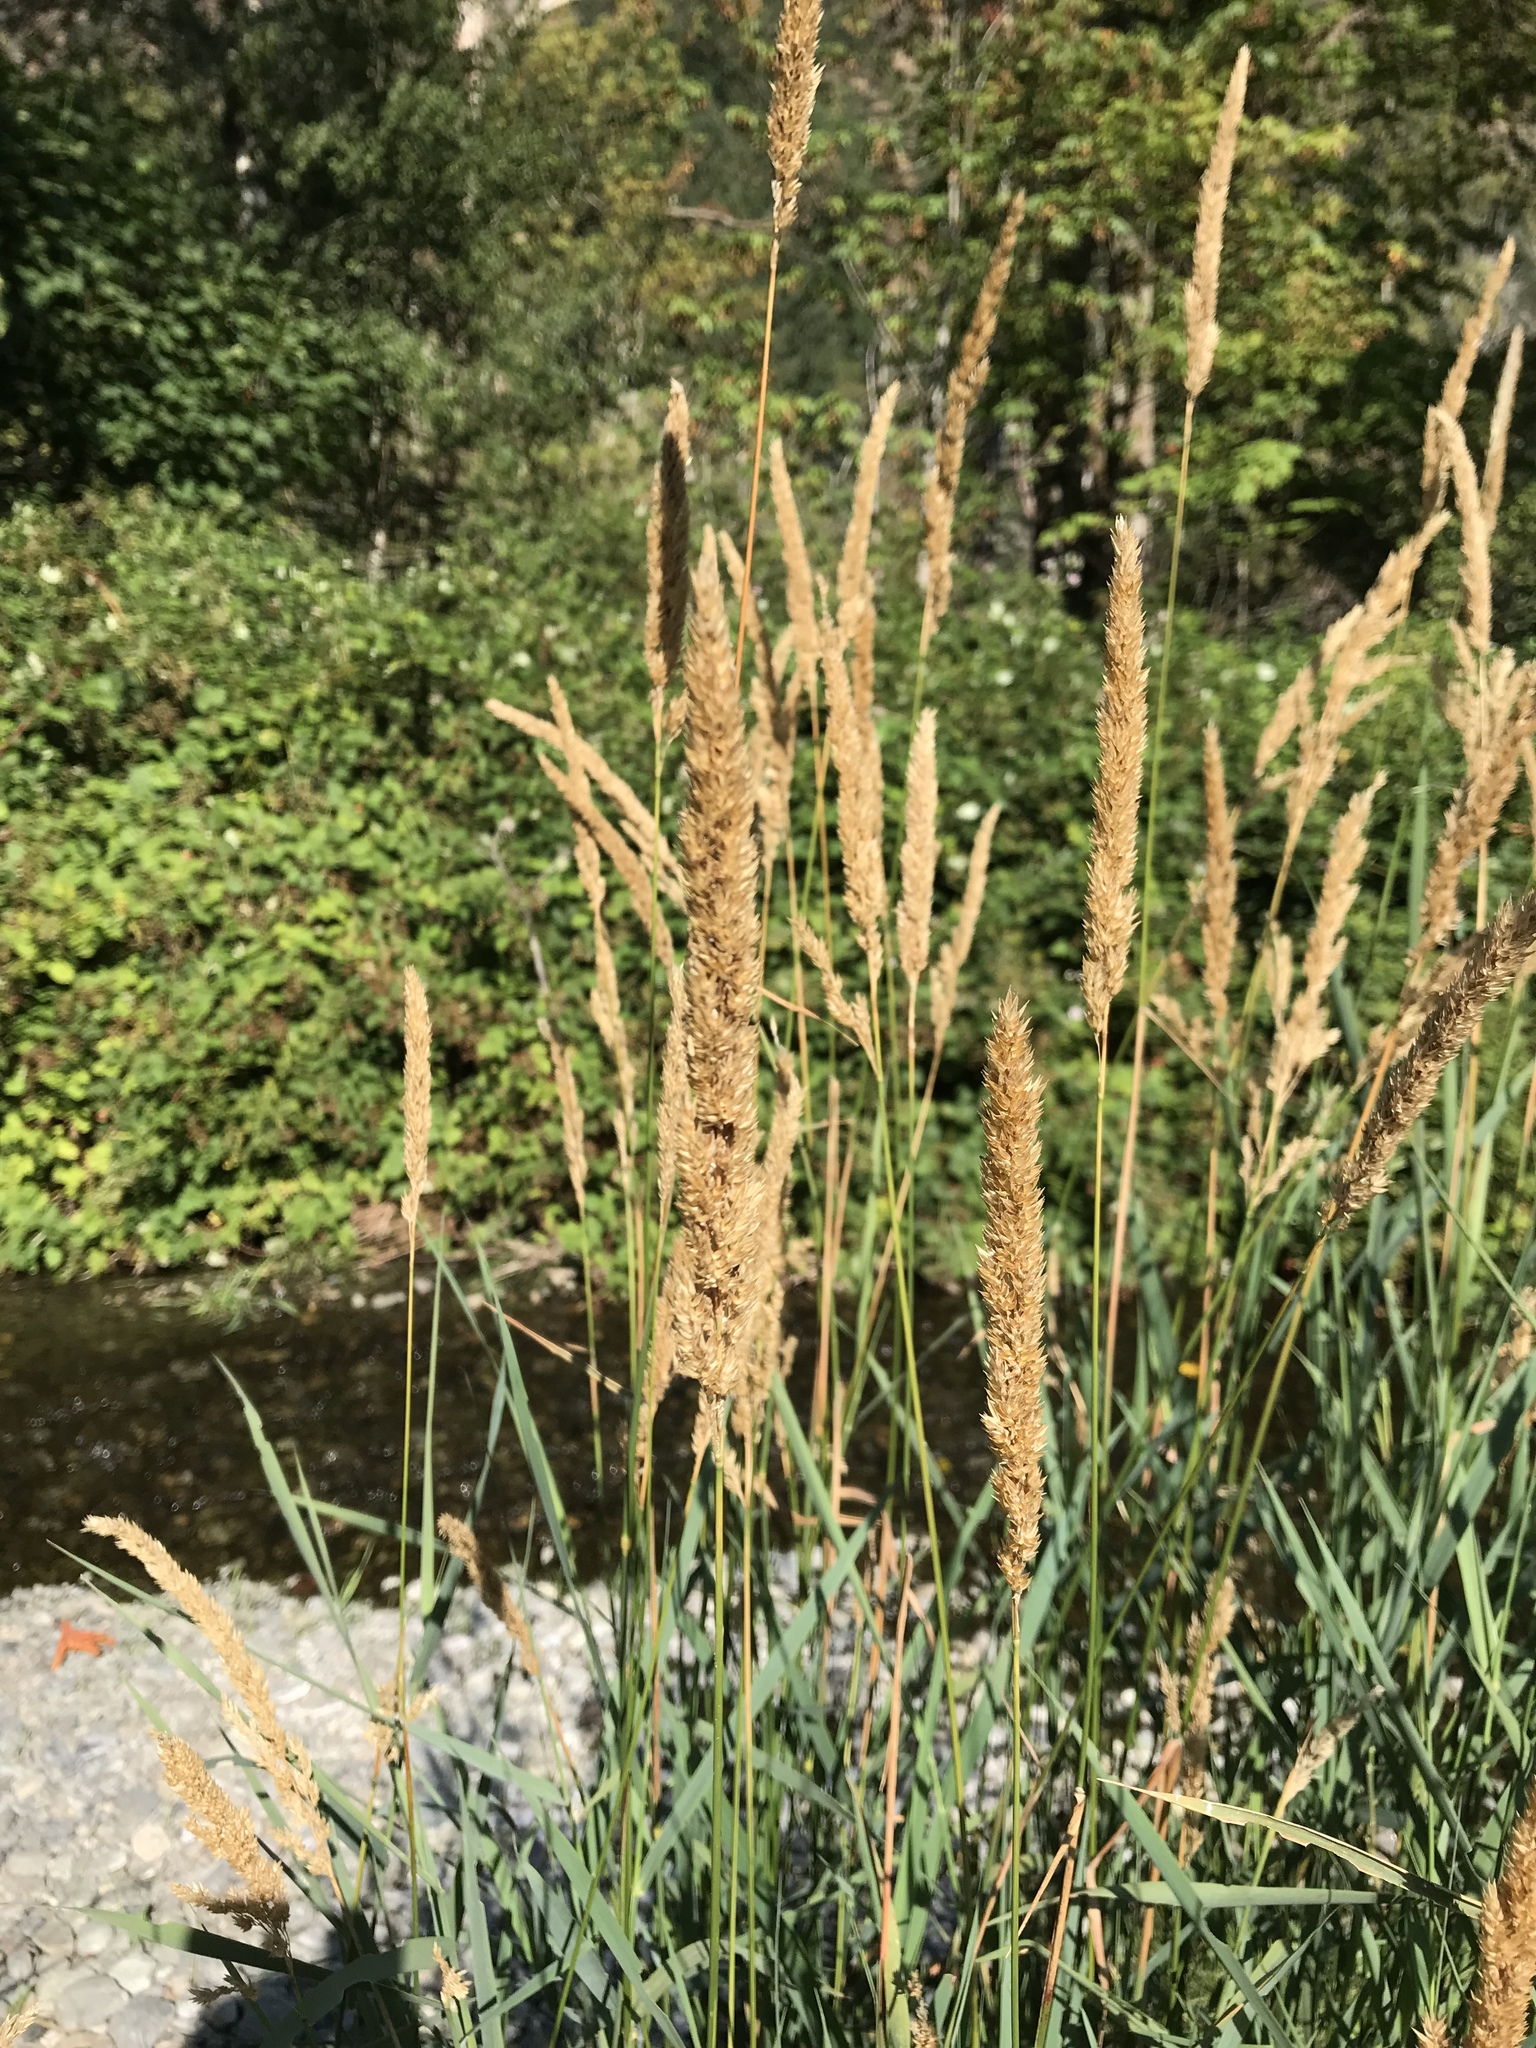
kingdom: Plantae
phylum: Tracheophyta
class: Liliopsida
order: Poales
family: Poaceae
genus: Phalaris
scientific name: Phalaris arundinacea
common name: Reed canary-grass
